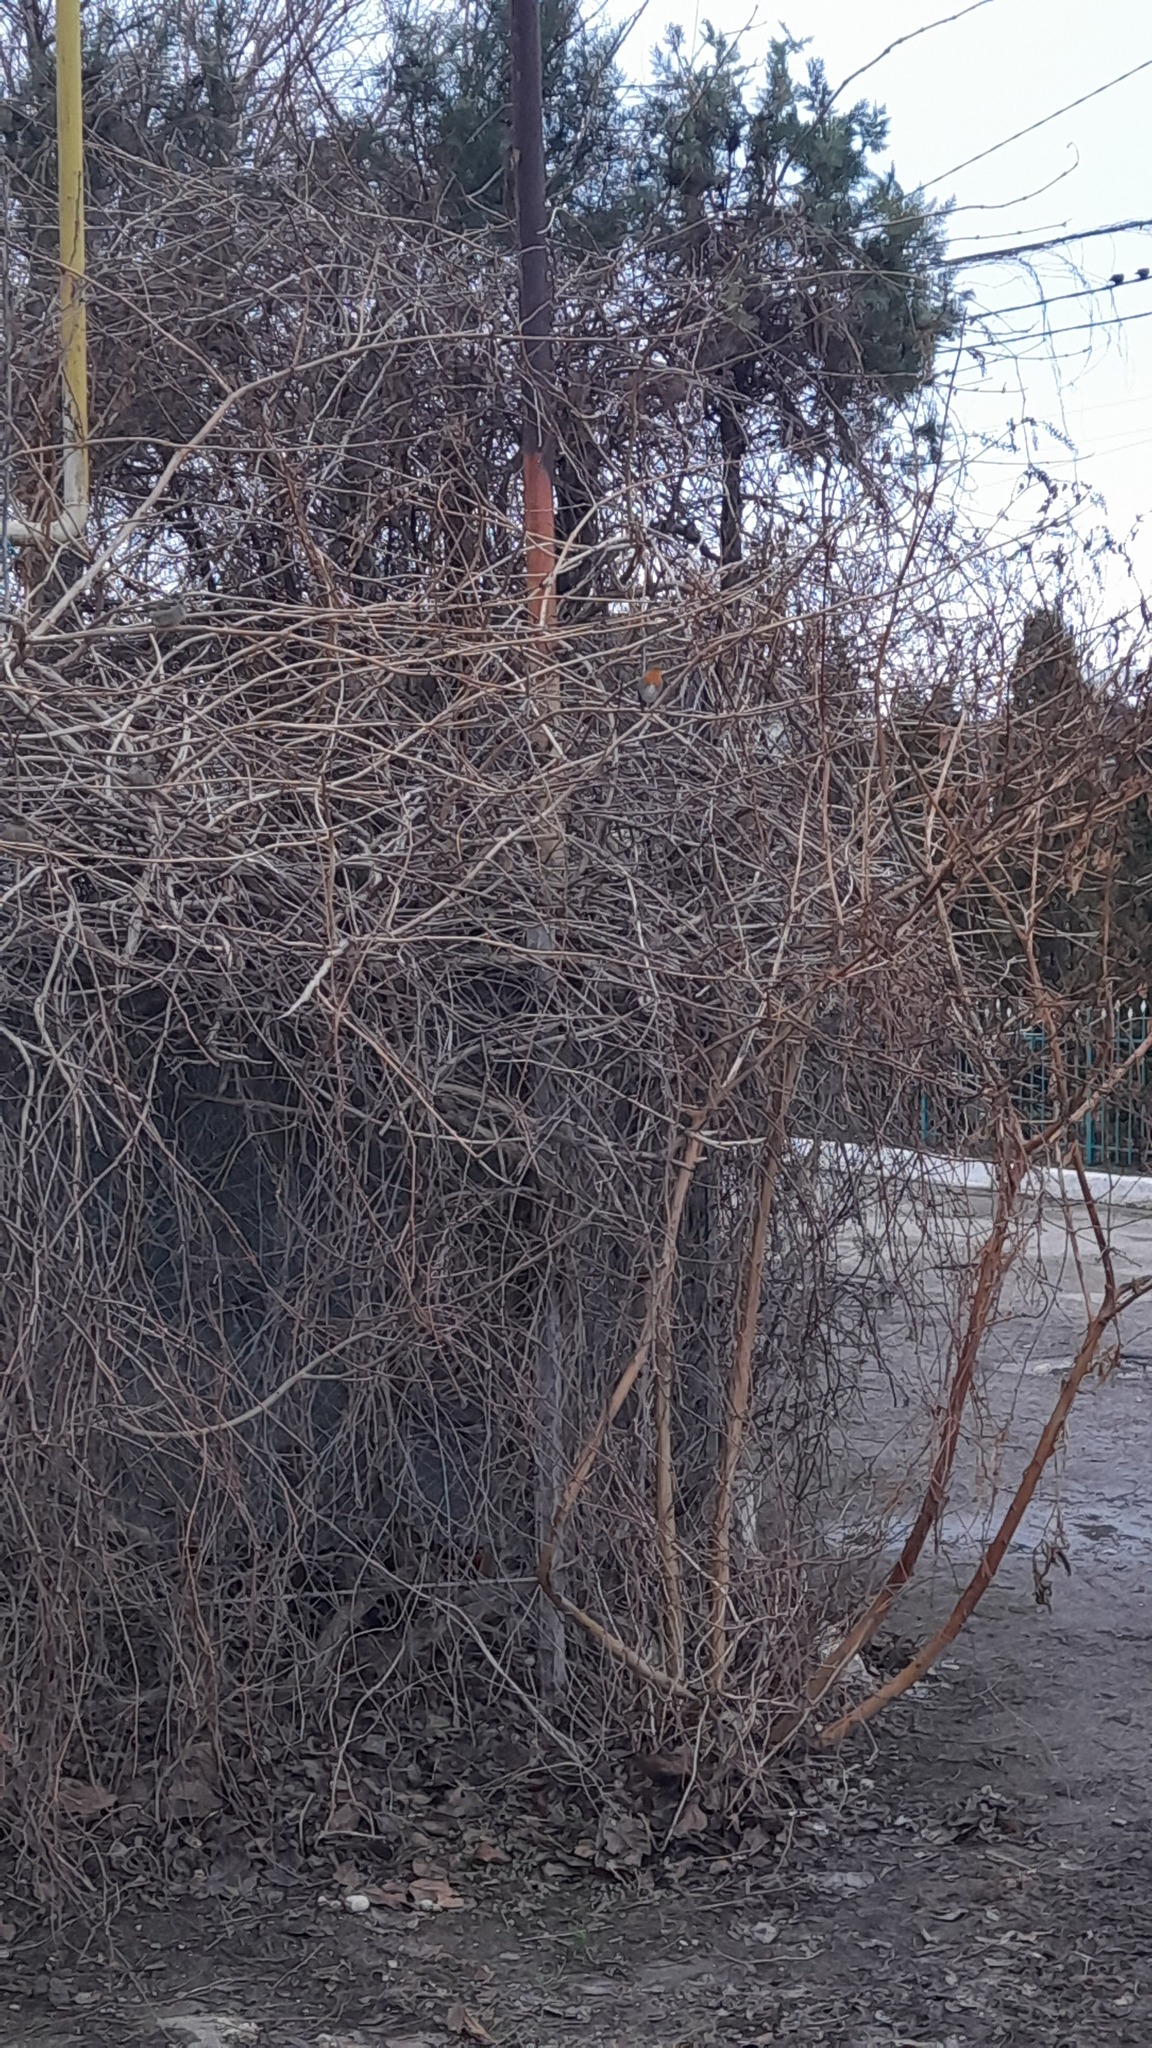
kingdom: Animalia
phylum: Chordata
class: Aves
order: Passeriformes
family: Muscicapidae
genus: Erithacus
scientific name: Erithacus rubecula
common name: European robin
